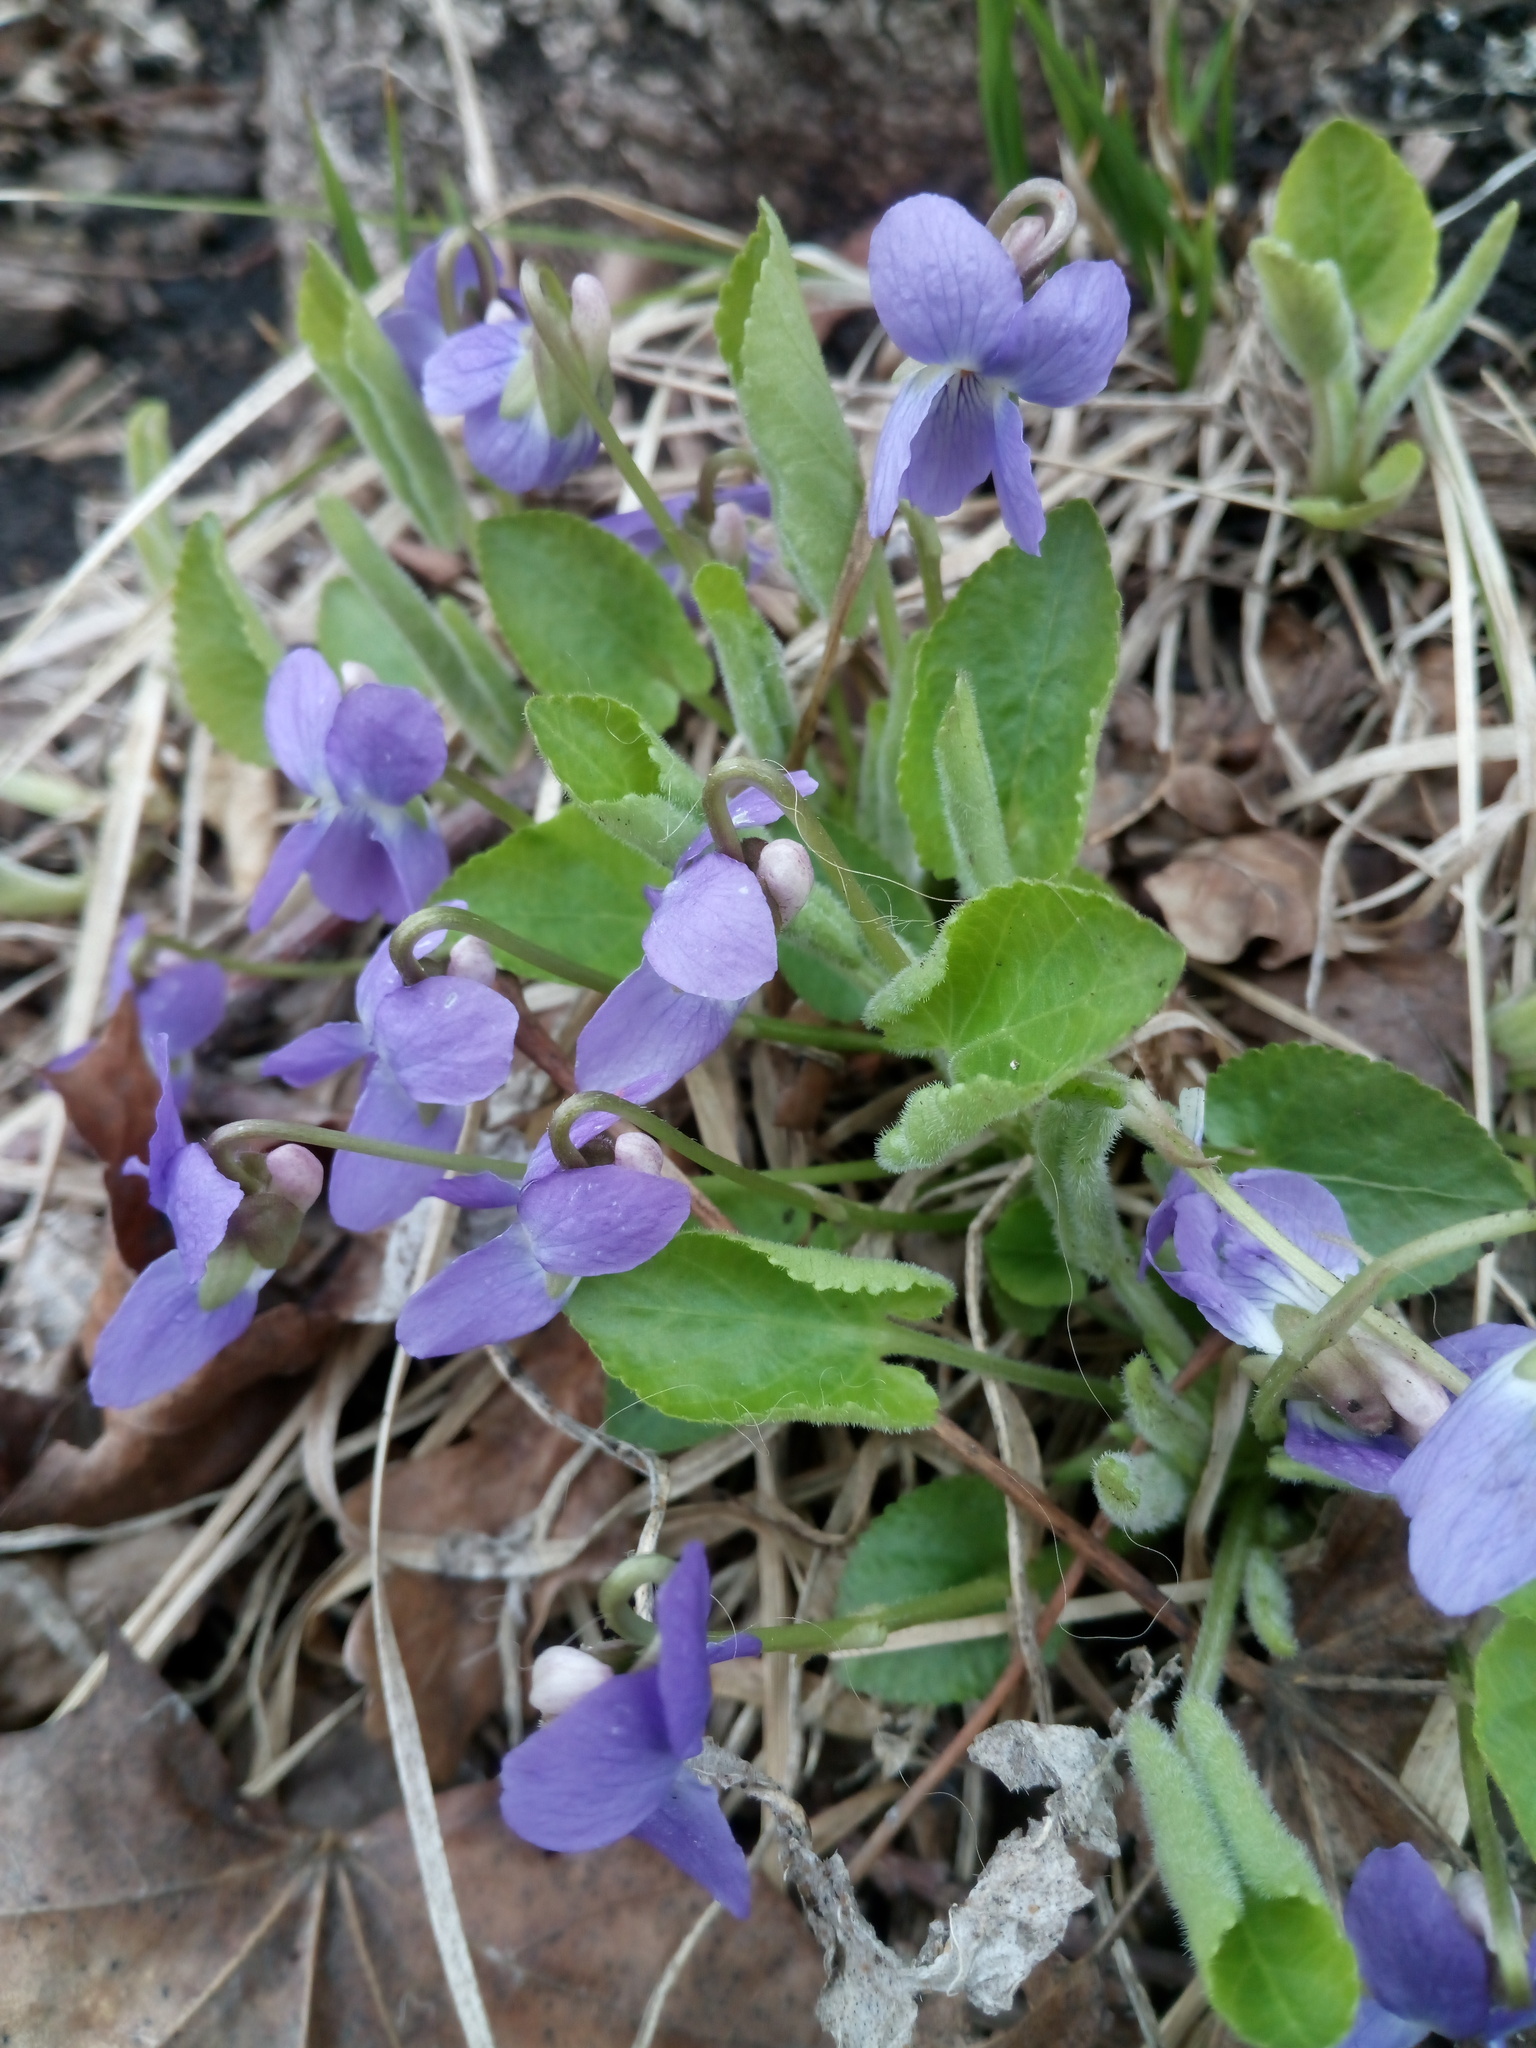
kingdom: Plantae
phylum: Tracheophyta
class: Magnoliopsida
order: Malpighiales
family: Violaceae
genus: Viola
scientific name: Viola collina
